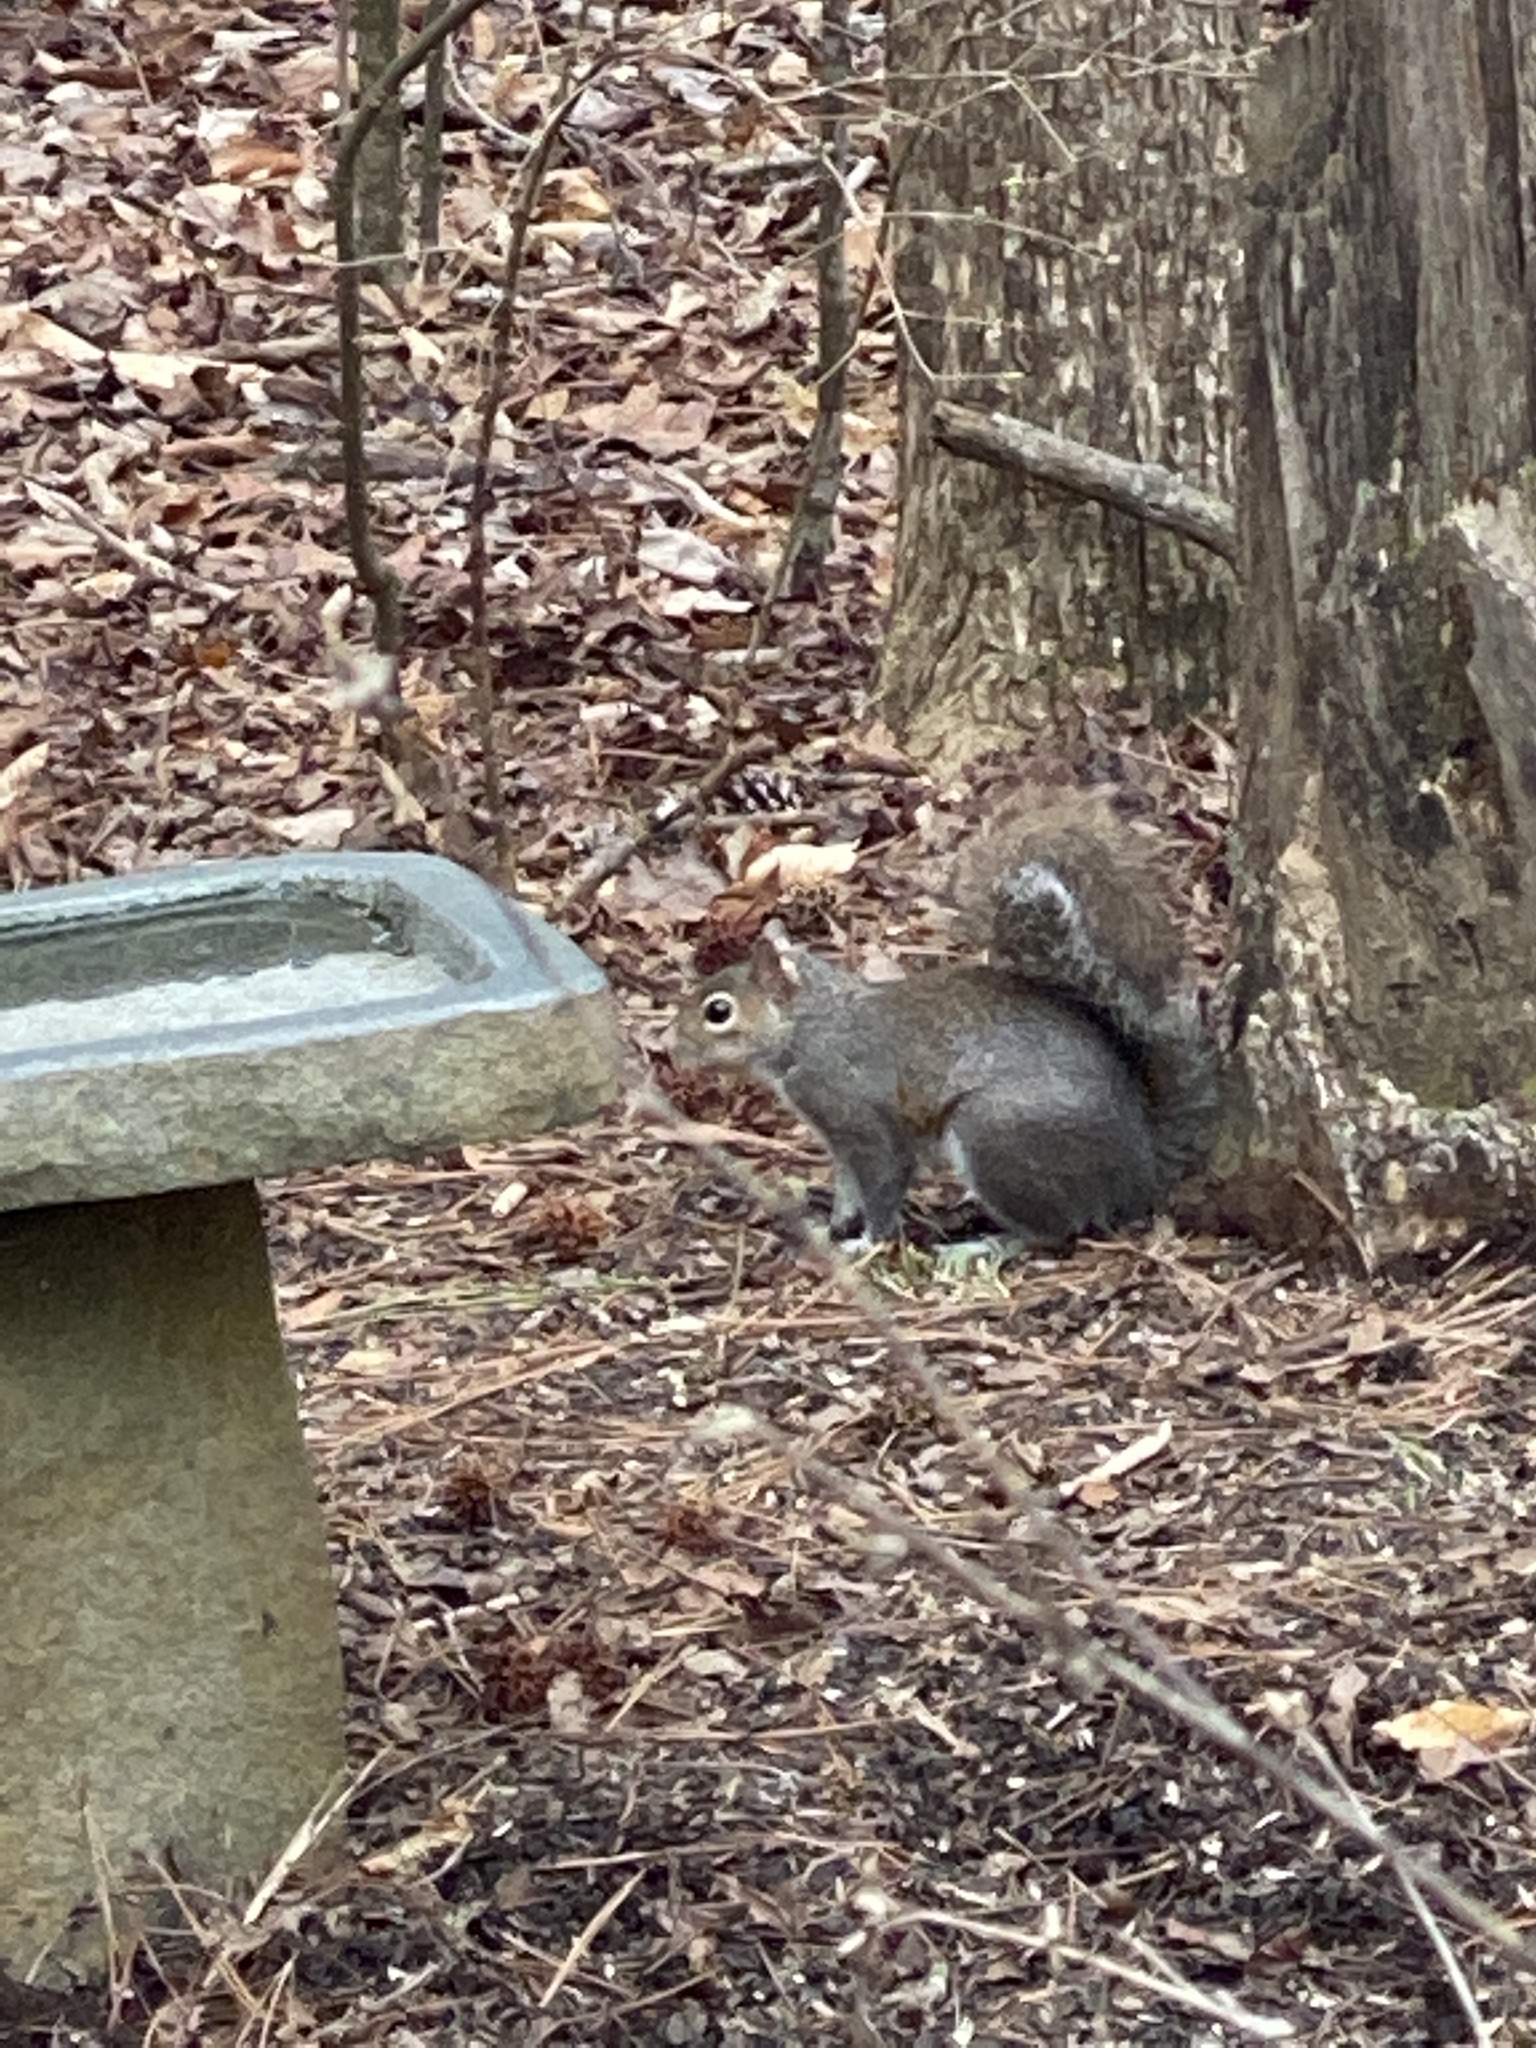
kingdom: Animalia
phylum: Chordata
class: Mammalia
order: Rodentia
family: Sciuridae
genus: Sciurus
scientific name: Sciurus carolinensis
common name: Eastern gray squirrel
